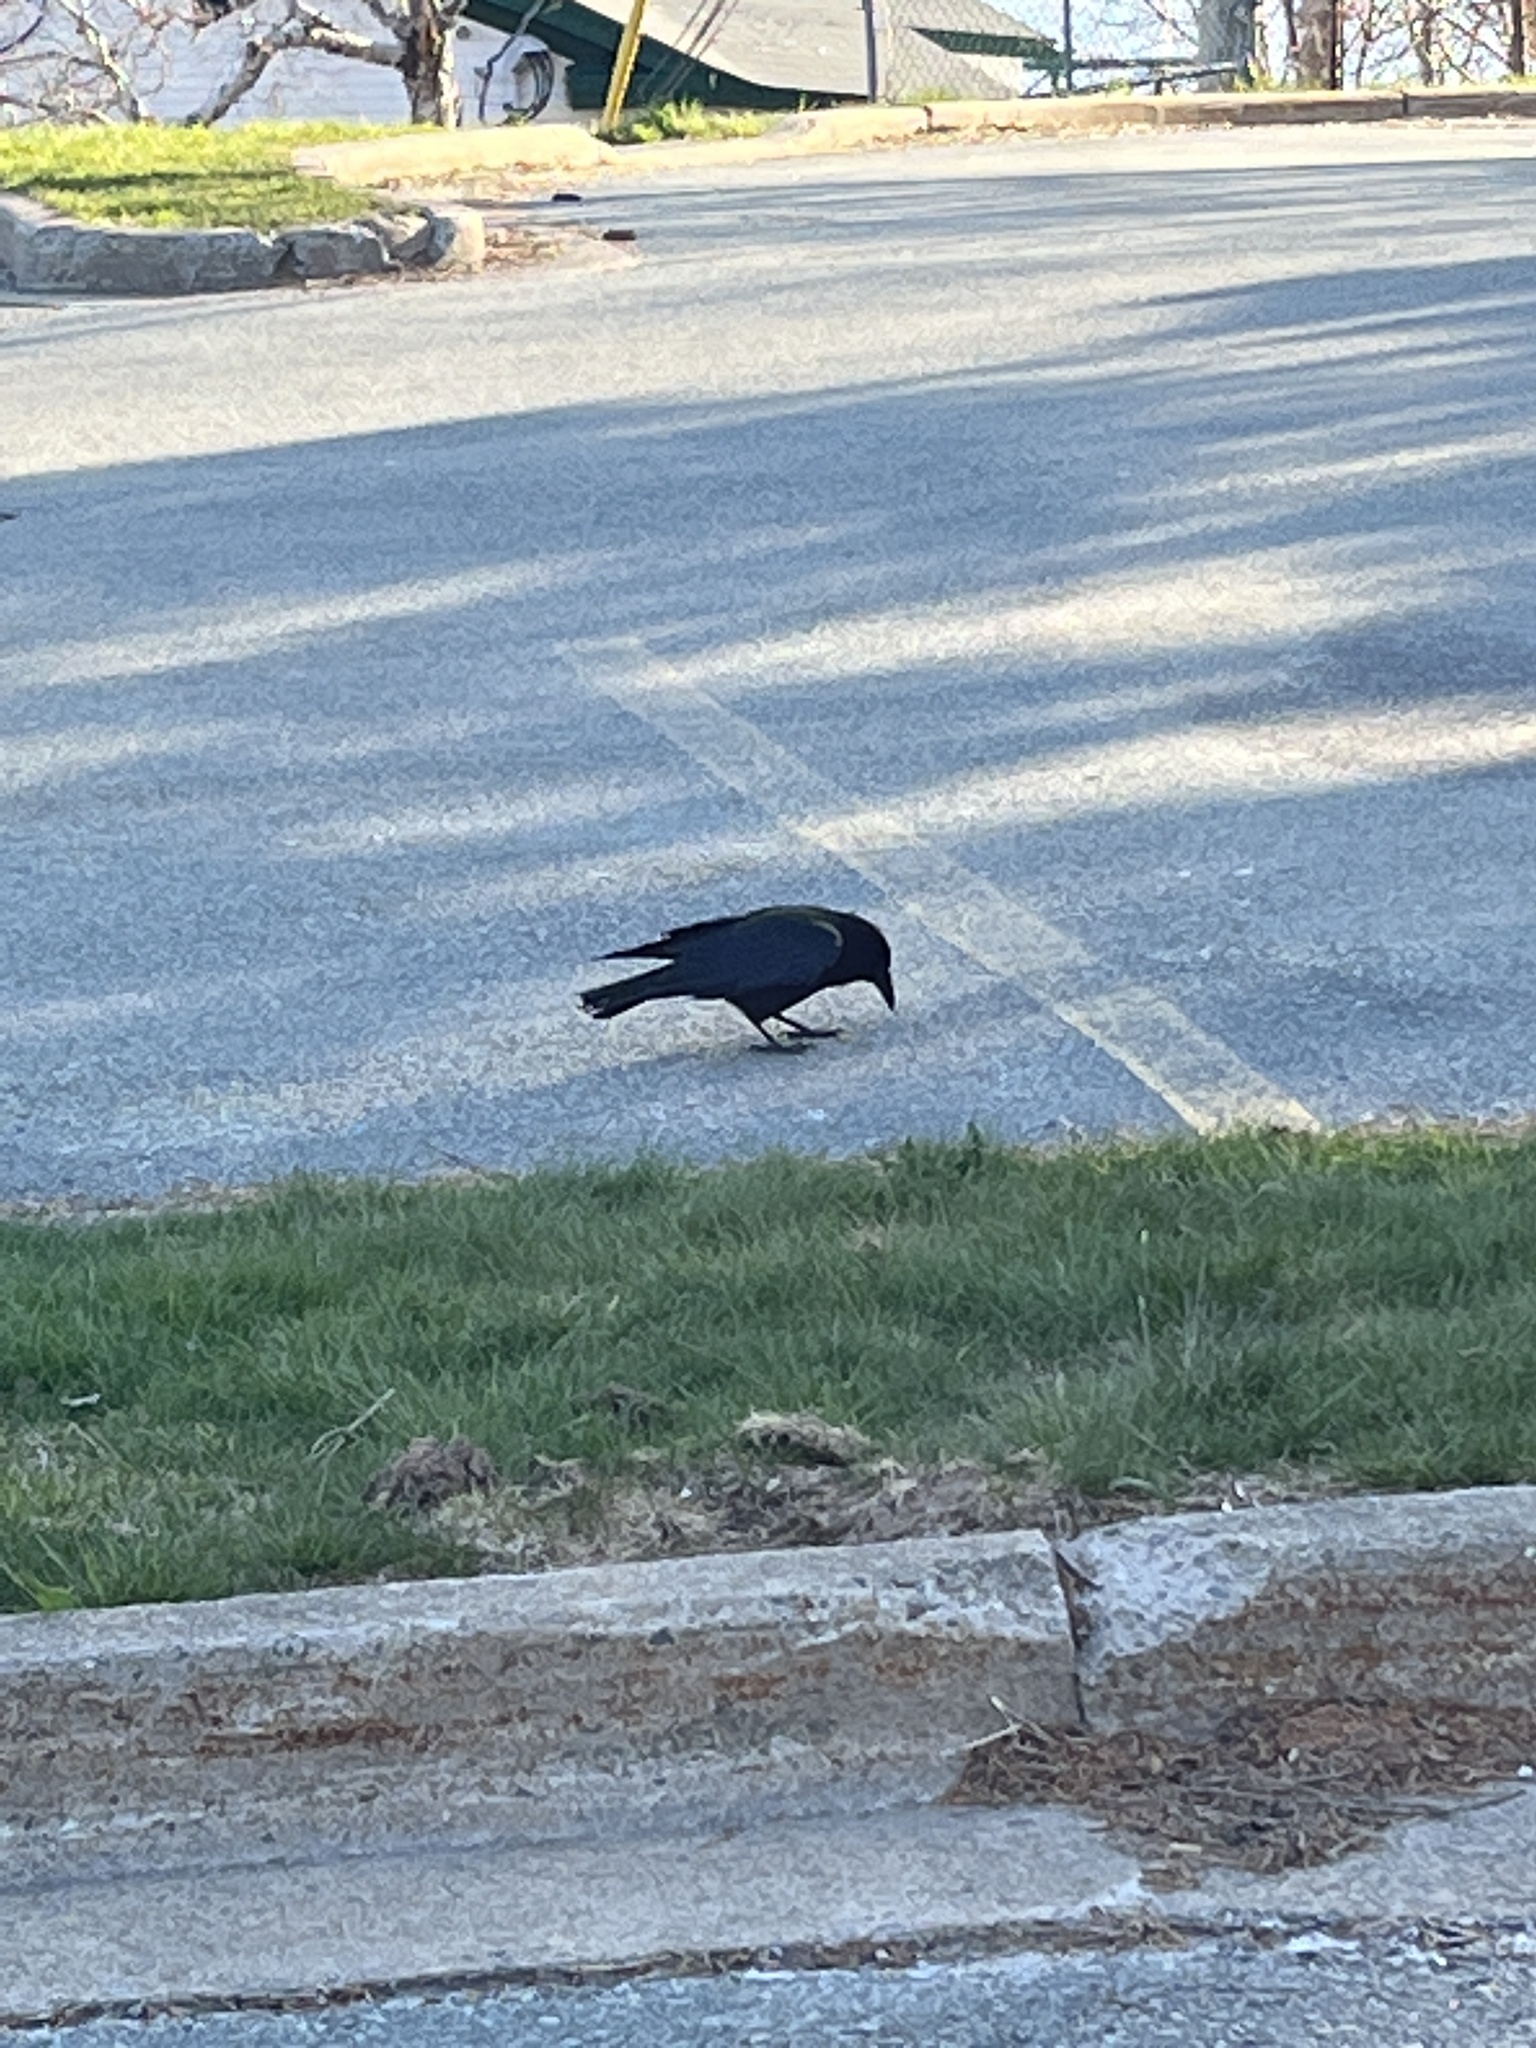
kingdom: Animalia
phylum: Chordata
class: Aves
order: Passeriformes
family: Corvidae
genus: Corvus
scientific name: Corvus brachyrhynchos
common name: American crow
